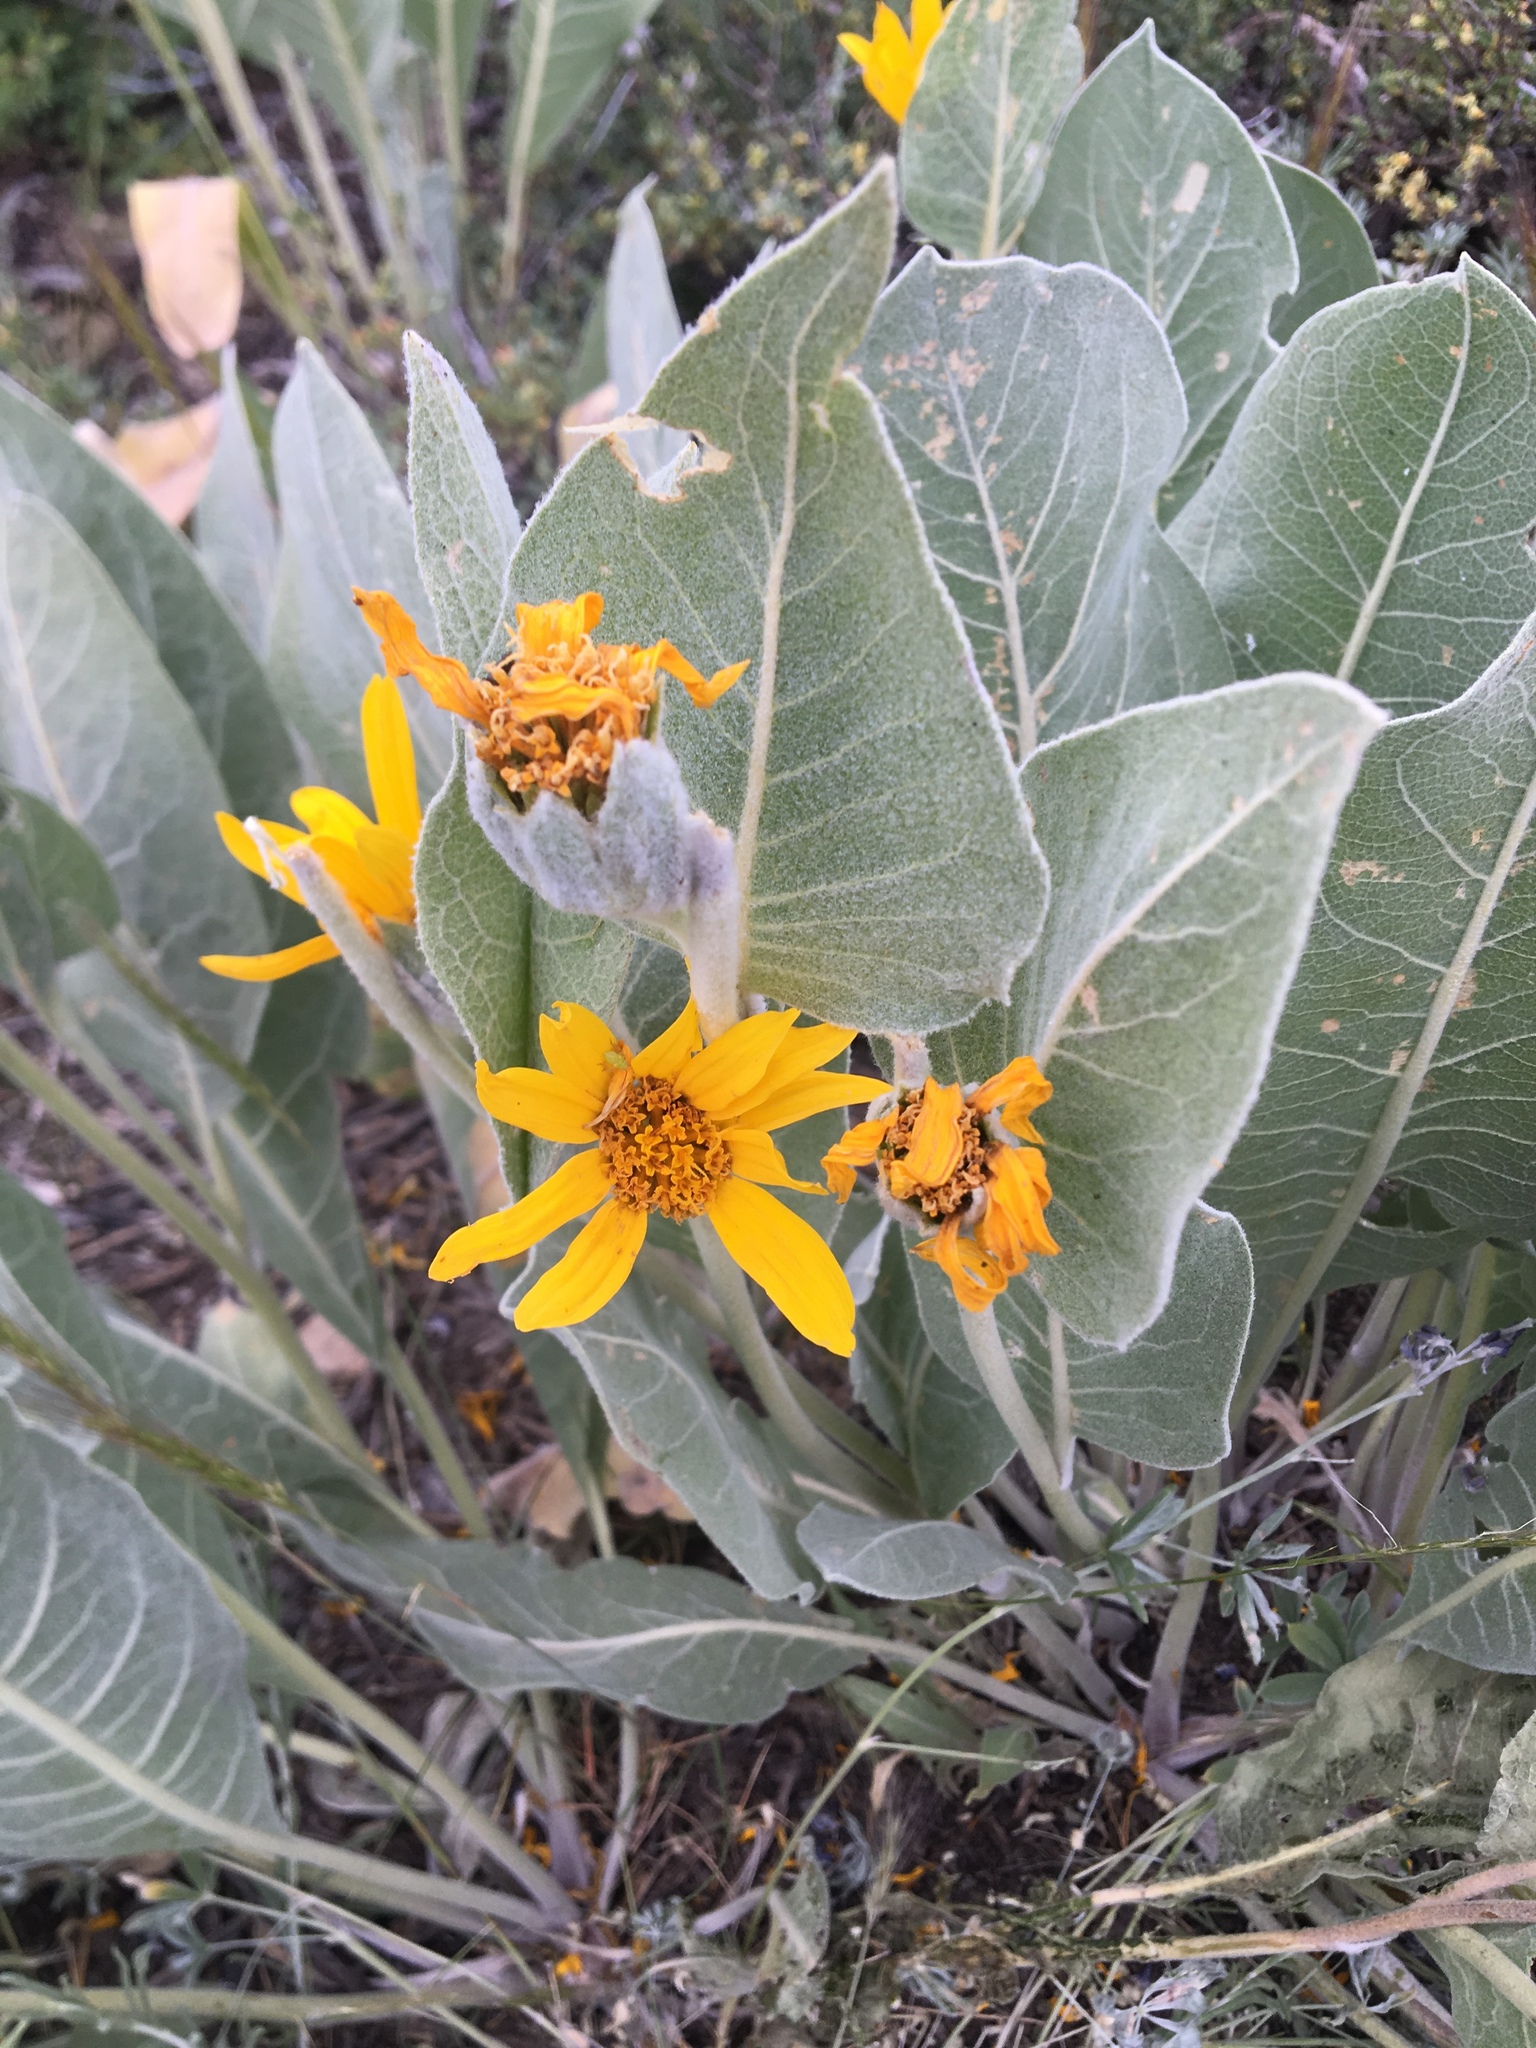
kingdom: Plantae
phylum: Tracheophyta
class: Magnoliopsida
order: Asterales
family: Asteraceae
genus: Wyethia
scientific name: Wyethia mollis
